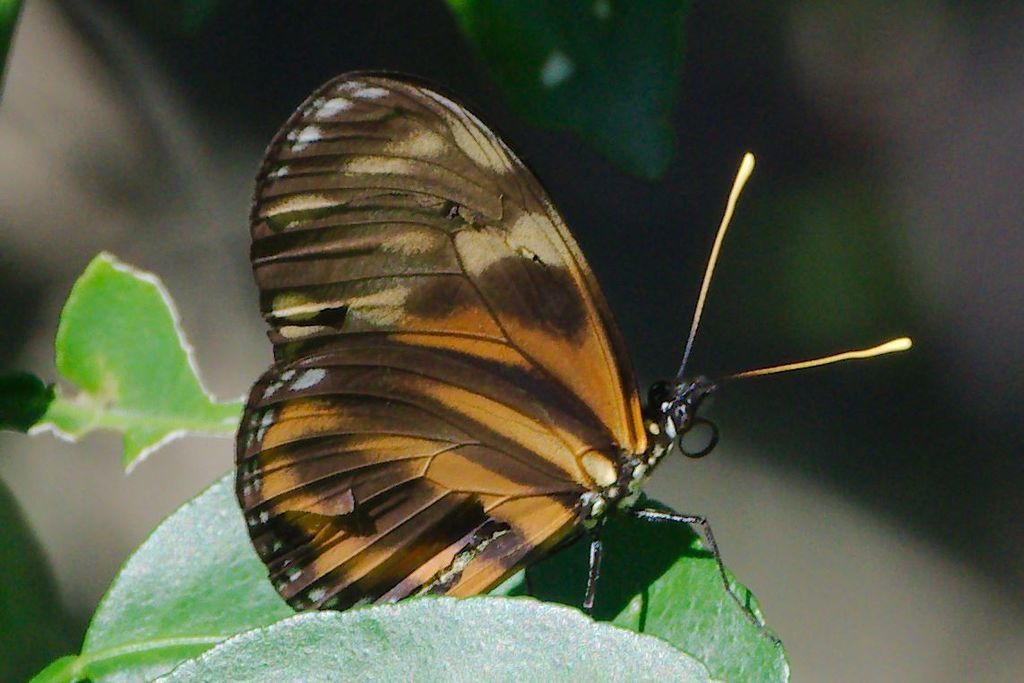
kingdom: Animalia
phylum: Arthropoda
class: Insecta
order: Lepidoptera
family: Nymphalidae
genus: Eueides
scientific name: Eueides isabella
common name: Isabella's longwing
